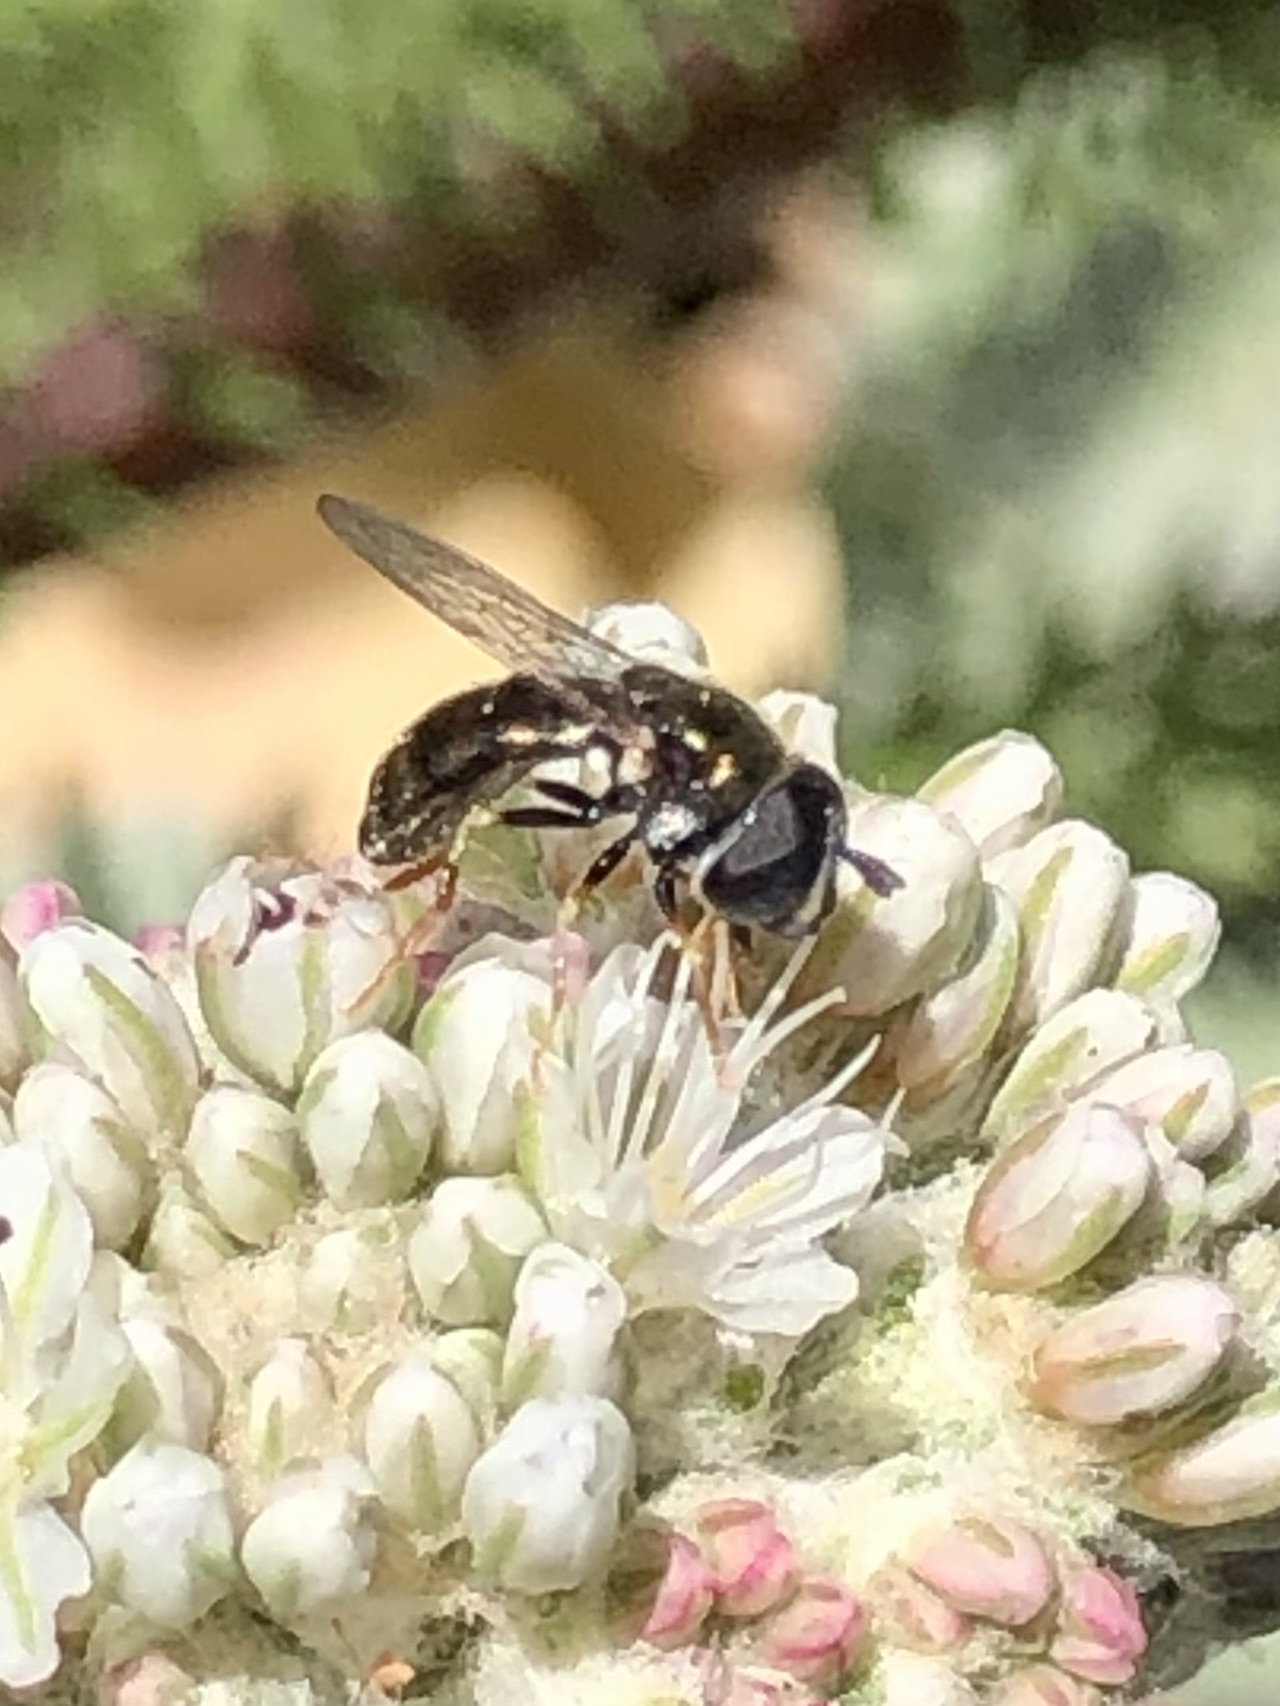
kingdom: Animalia
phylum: Arthropoda
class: Insecta
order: Diptera
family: Syrphidae
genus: Paragus
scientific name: Paragus haemorrhous
